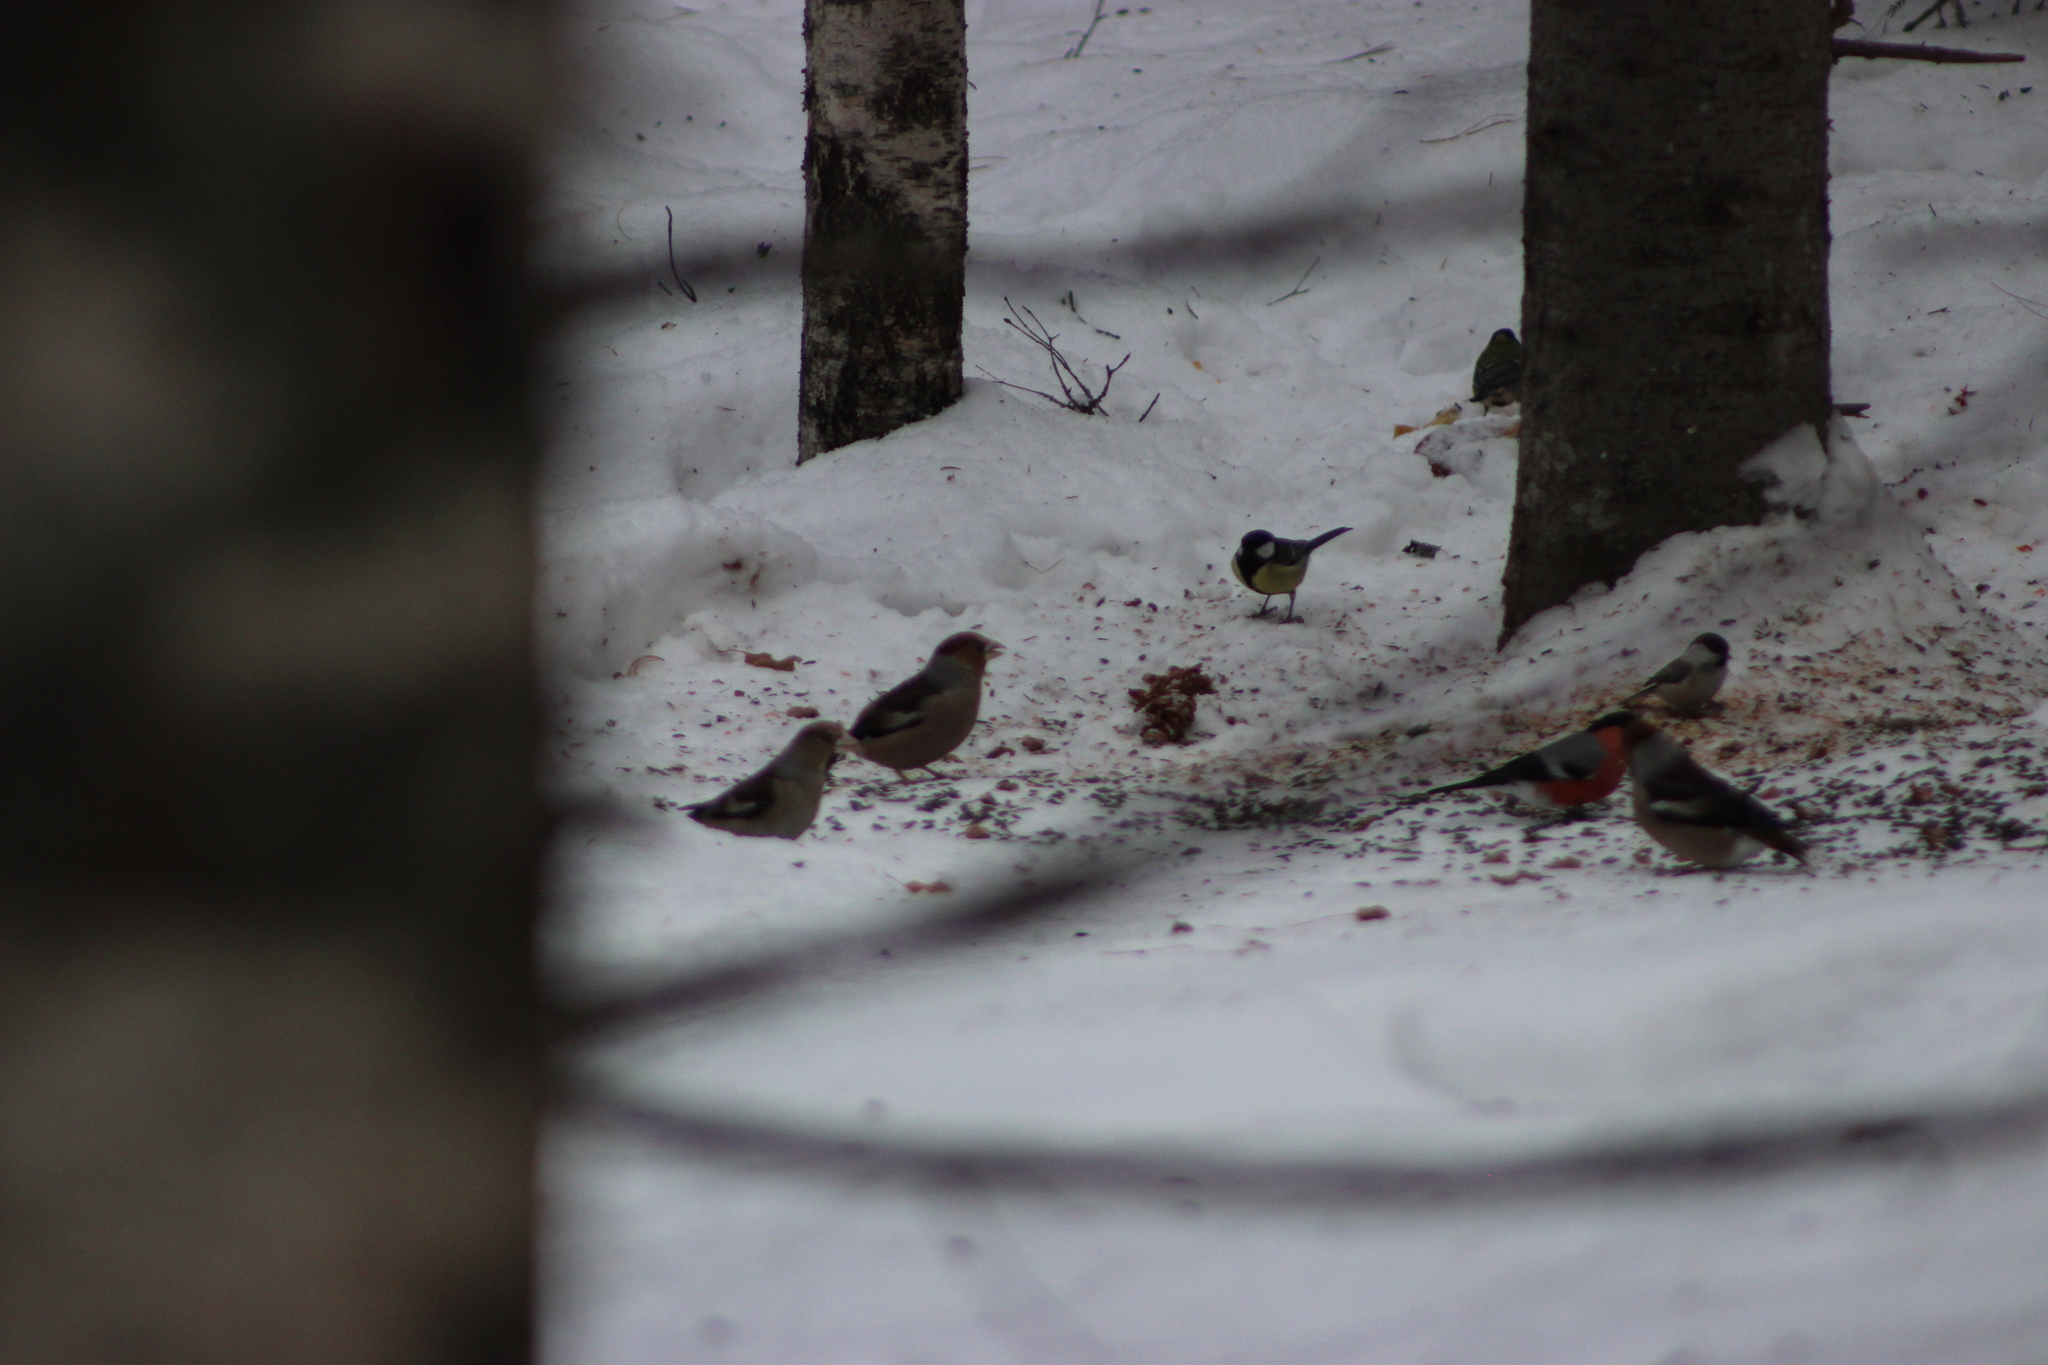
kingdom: Animalia
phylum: Chordata
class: Aves
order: Passeriformes
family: Fringillidae
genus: Coccothraustes
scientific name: Coccothraustes coccothraustes
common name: Hawfinch
